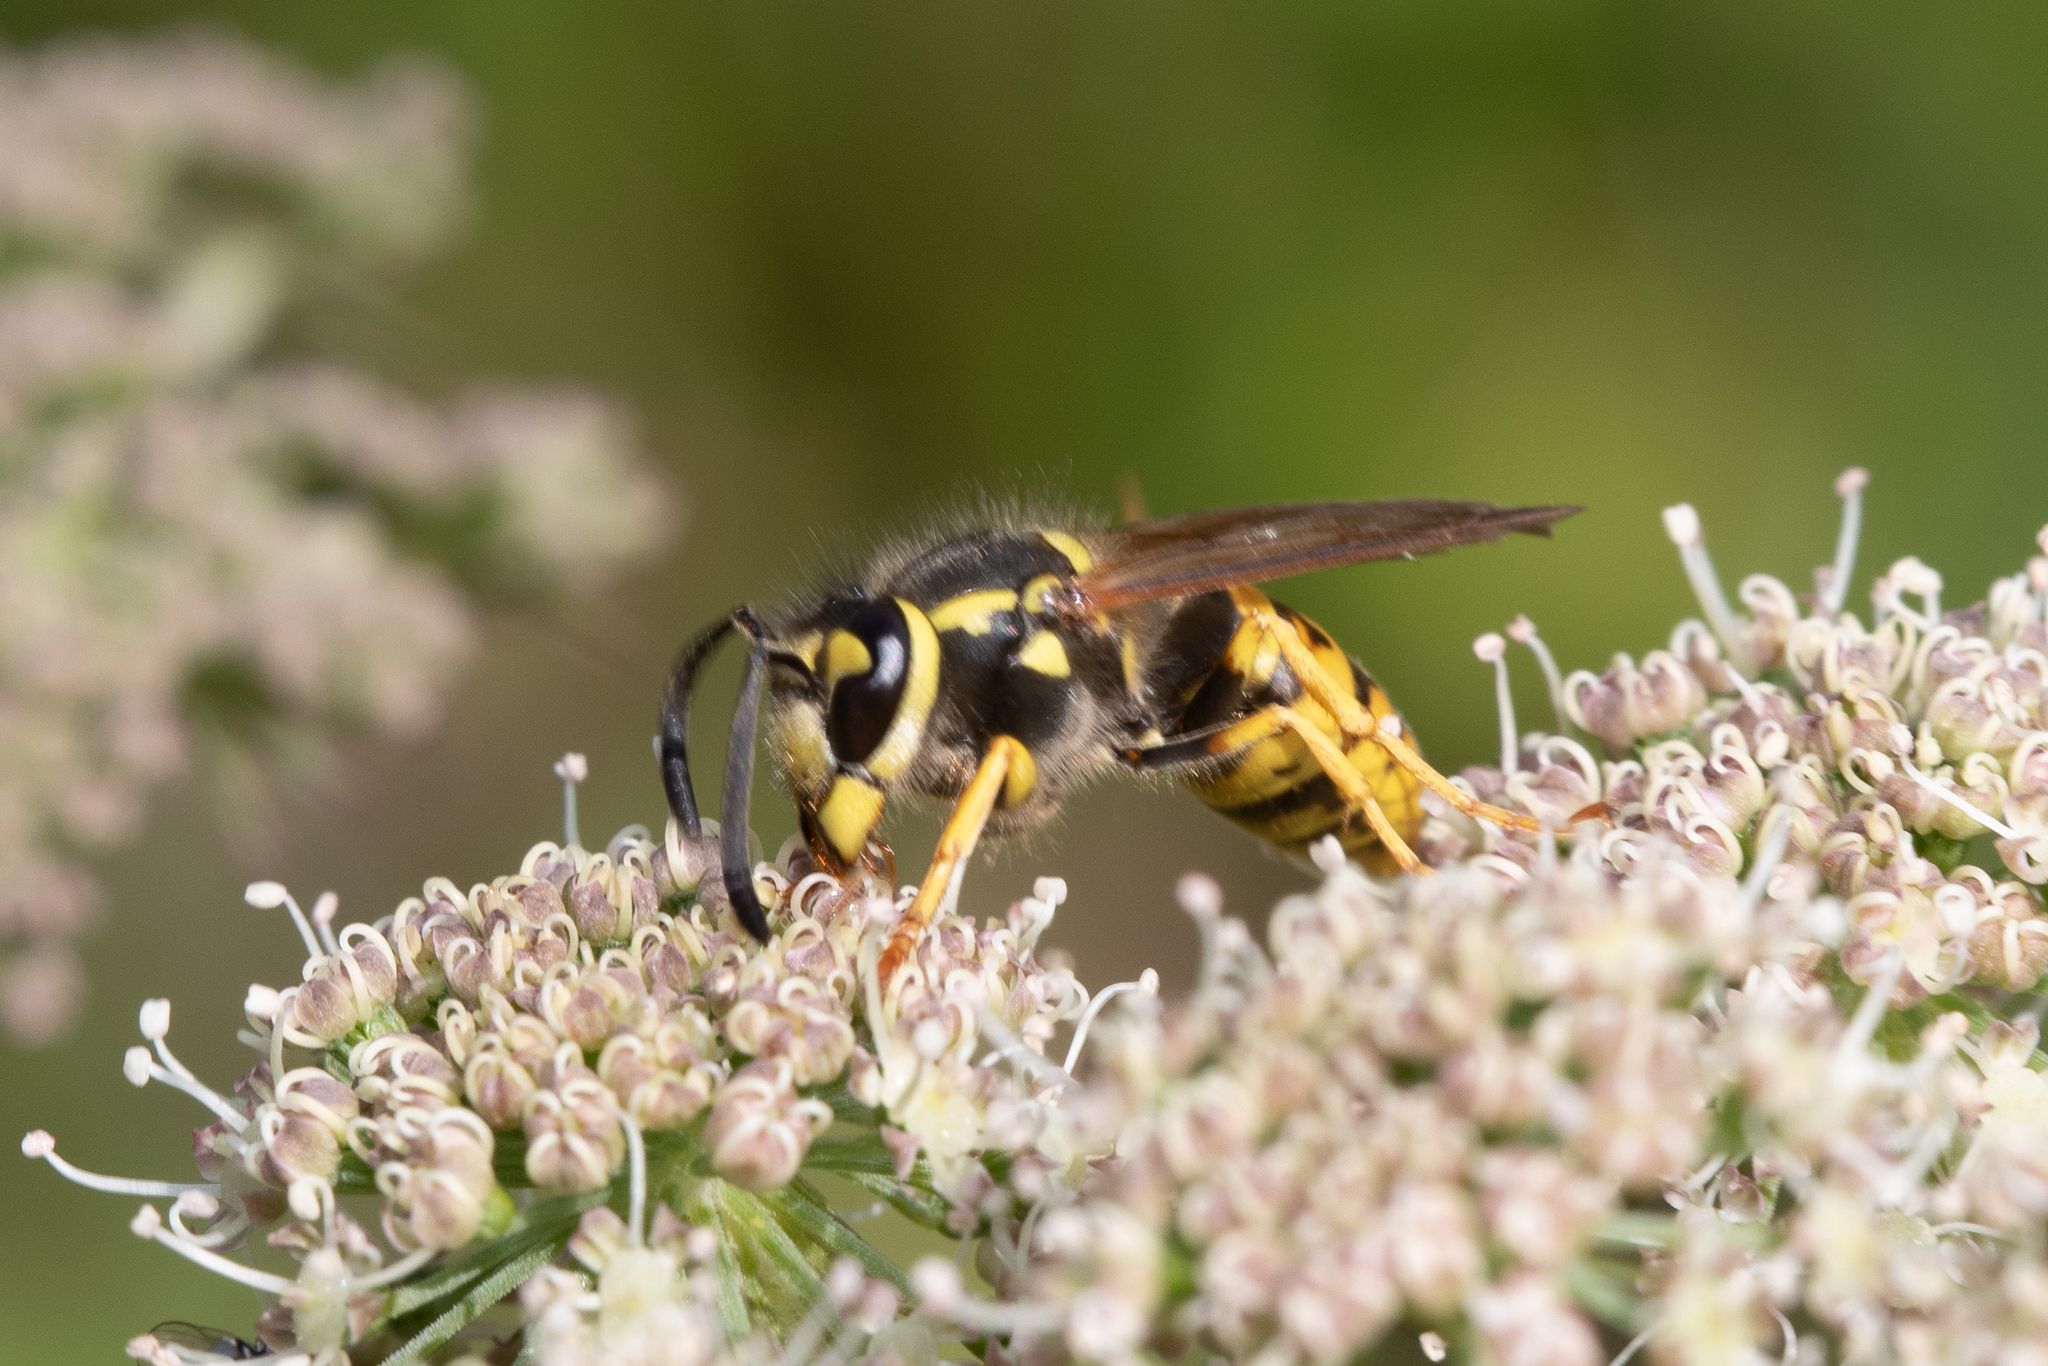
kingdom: Animalia
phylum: Arthropoda
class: Insecta
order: Hymenoptera
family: Vespidae
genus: Vespula
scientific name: Vespula germanica
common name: German wasp
